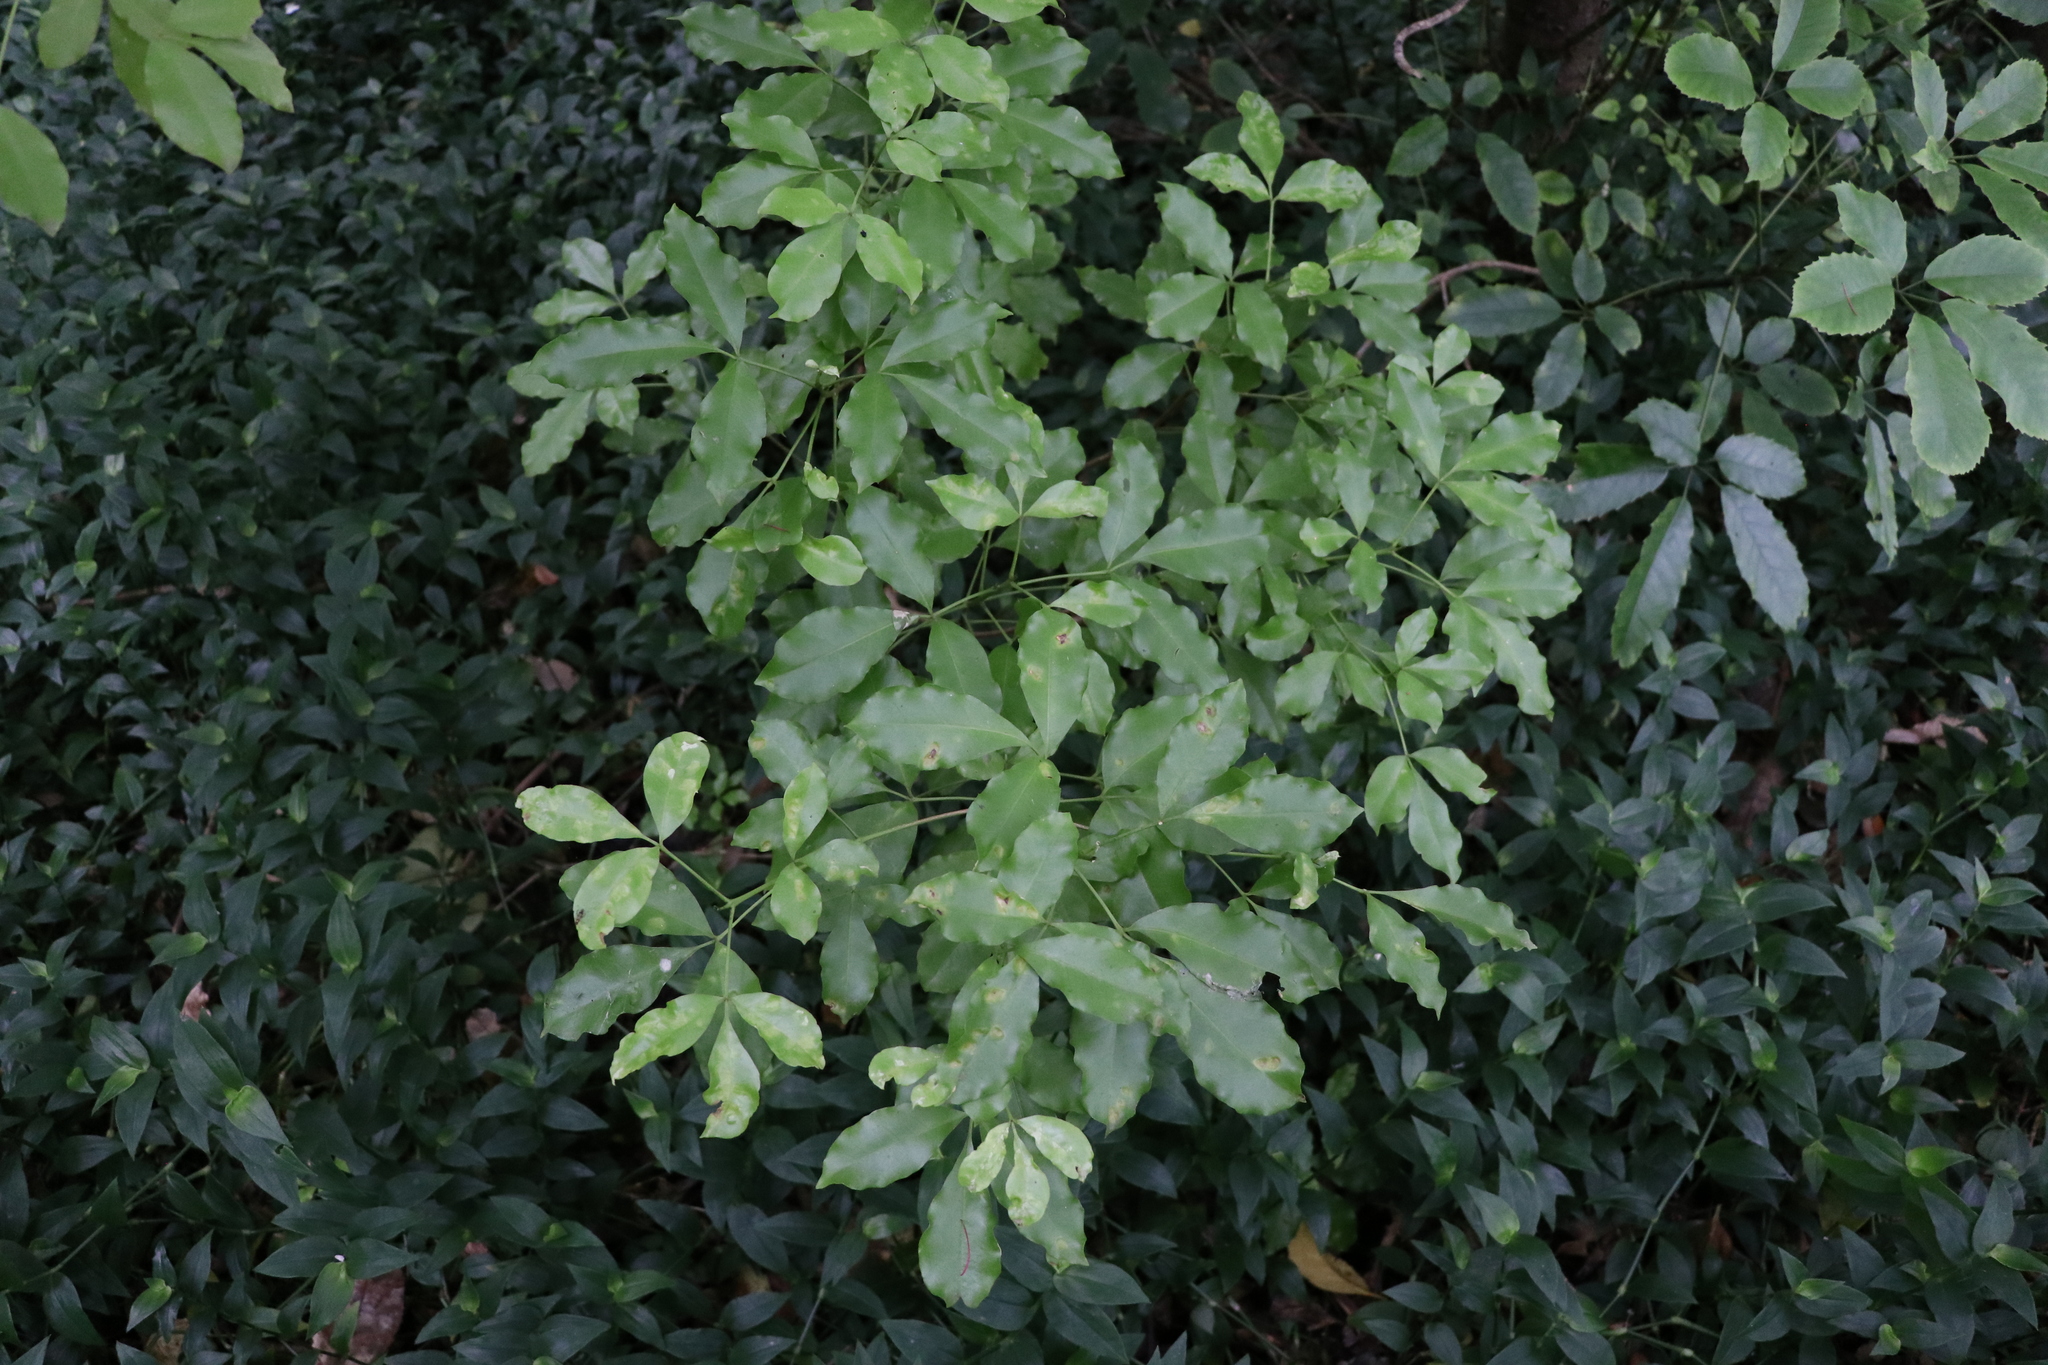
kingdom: Plantae
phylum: Tracheophyta
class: Magnoliopsida
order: Sapindales
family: Rutaceae
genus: Melicope
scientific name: Melicope ternata
